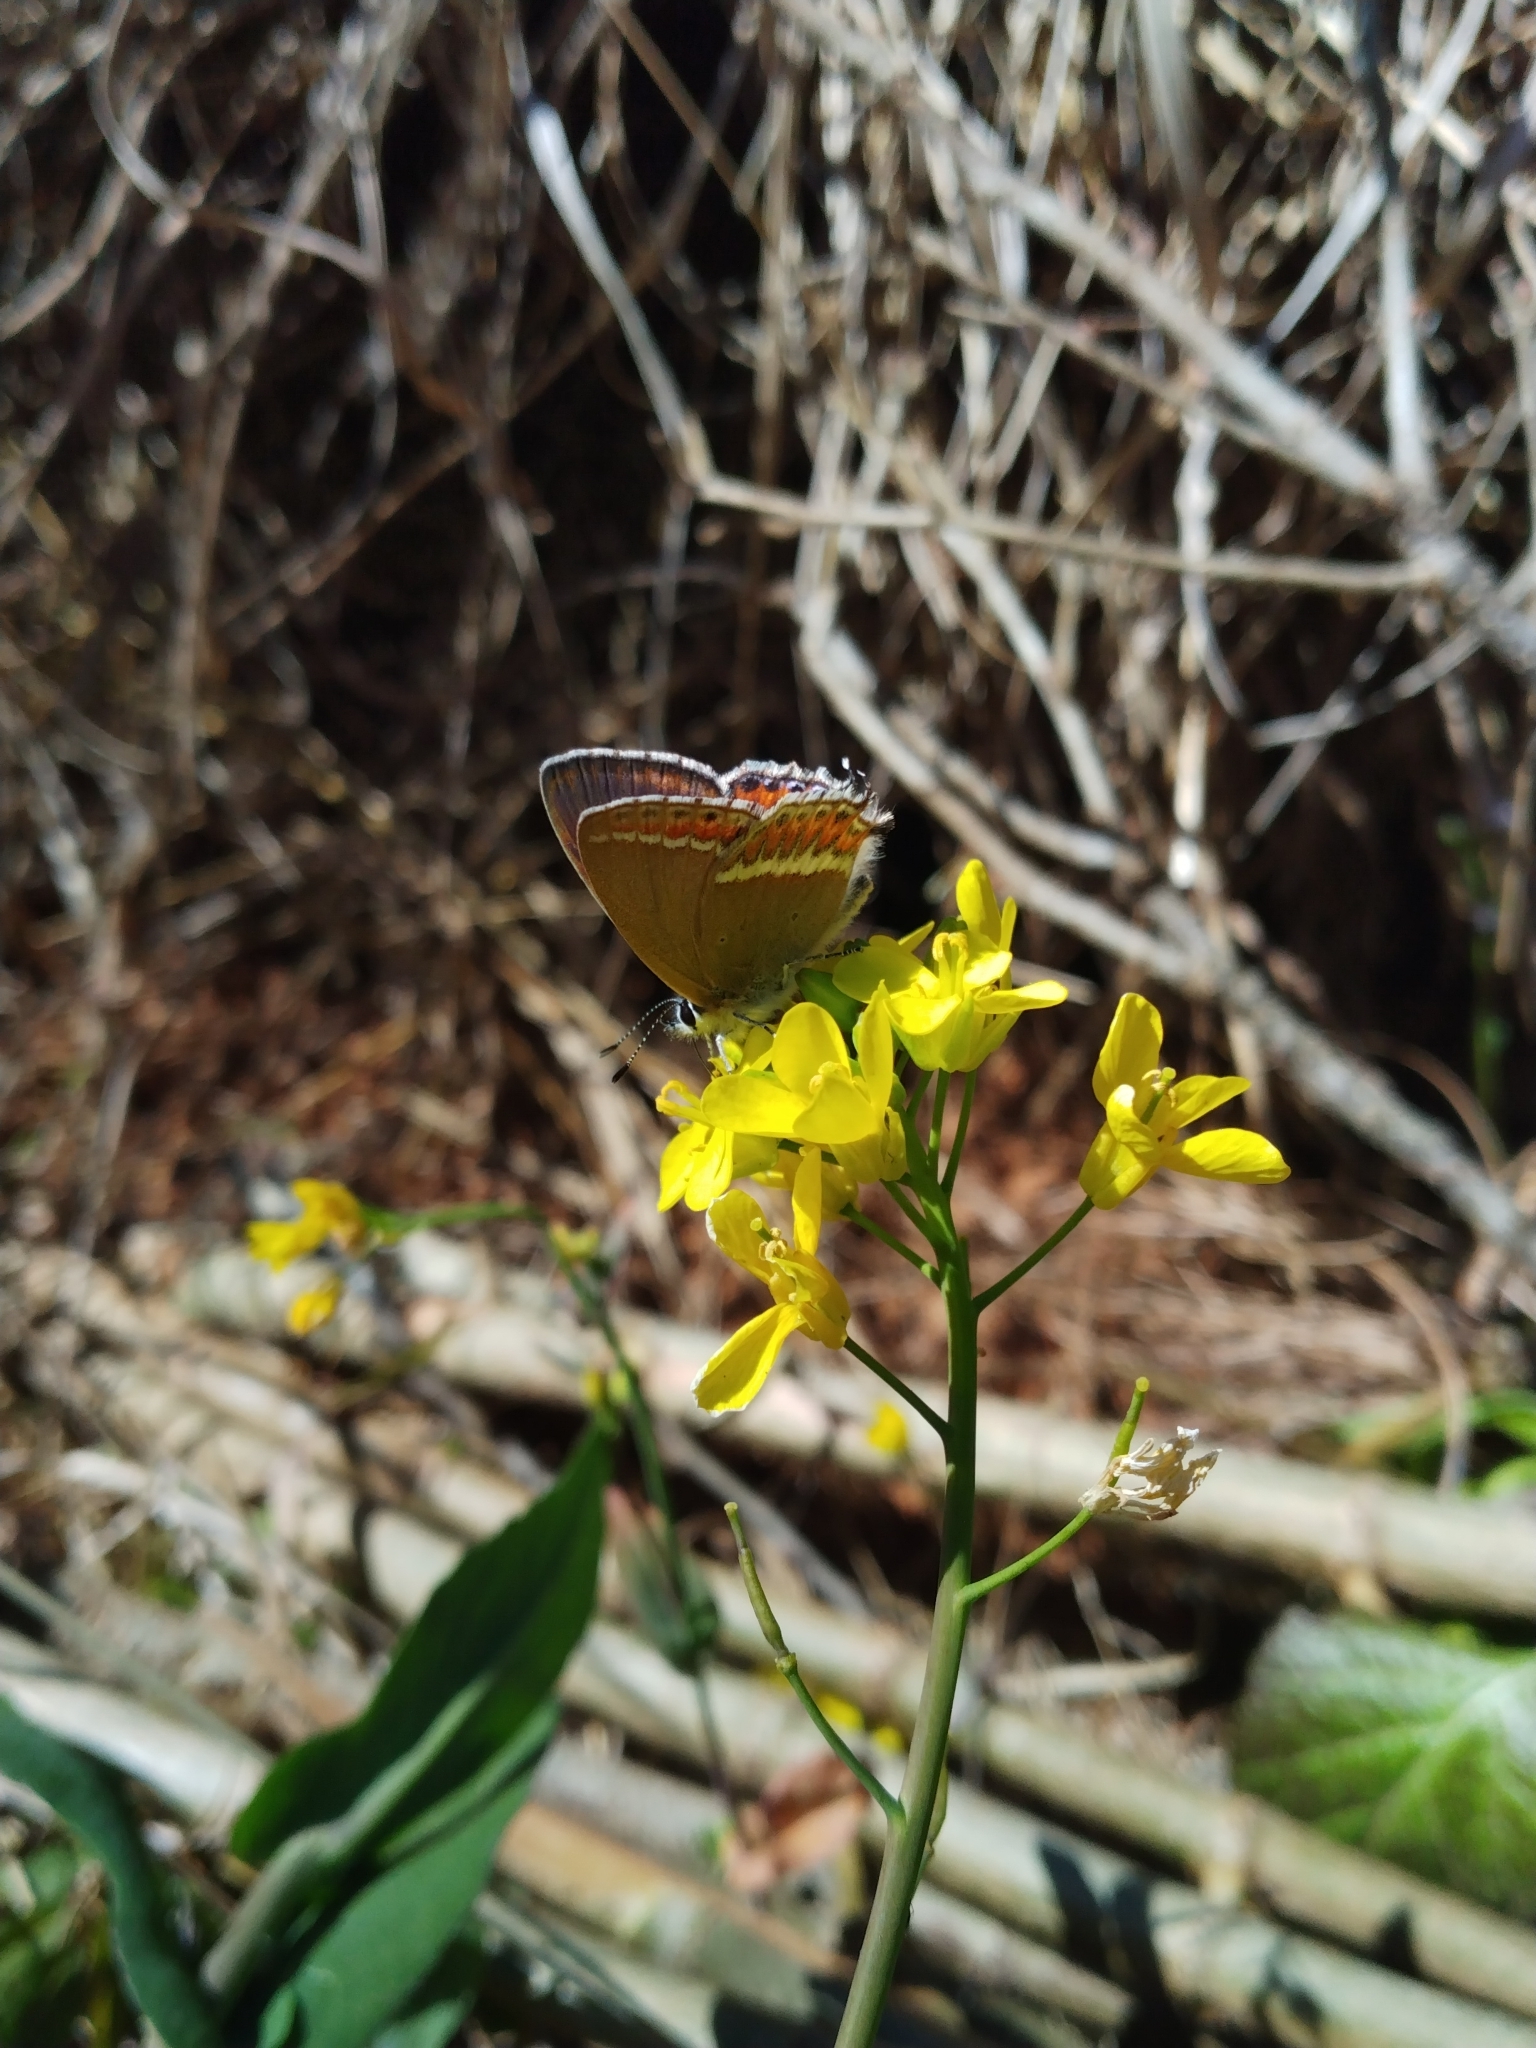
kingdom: Animalia
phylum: Arthropoda
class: Insecta
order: Lepidoptera
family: Lycaenidae
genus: Heliophorus
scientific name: Heliophorus sena
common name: Sorrel sapphire
